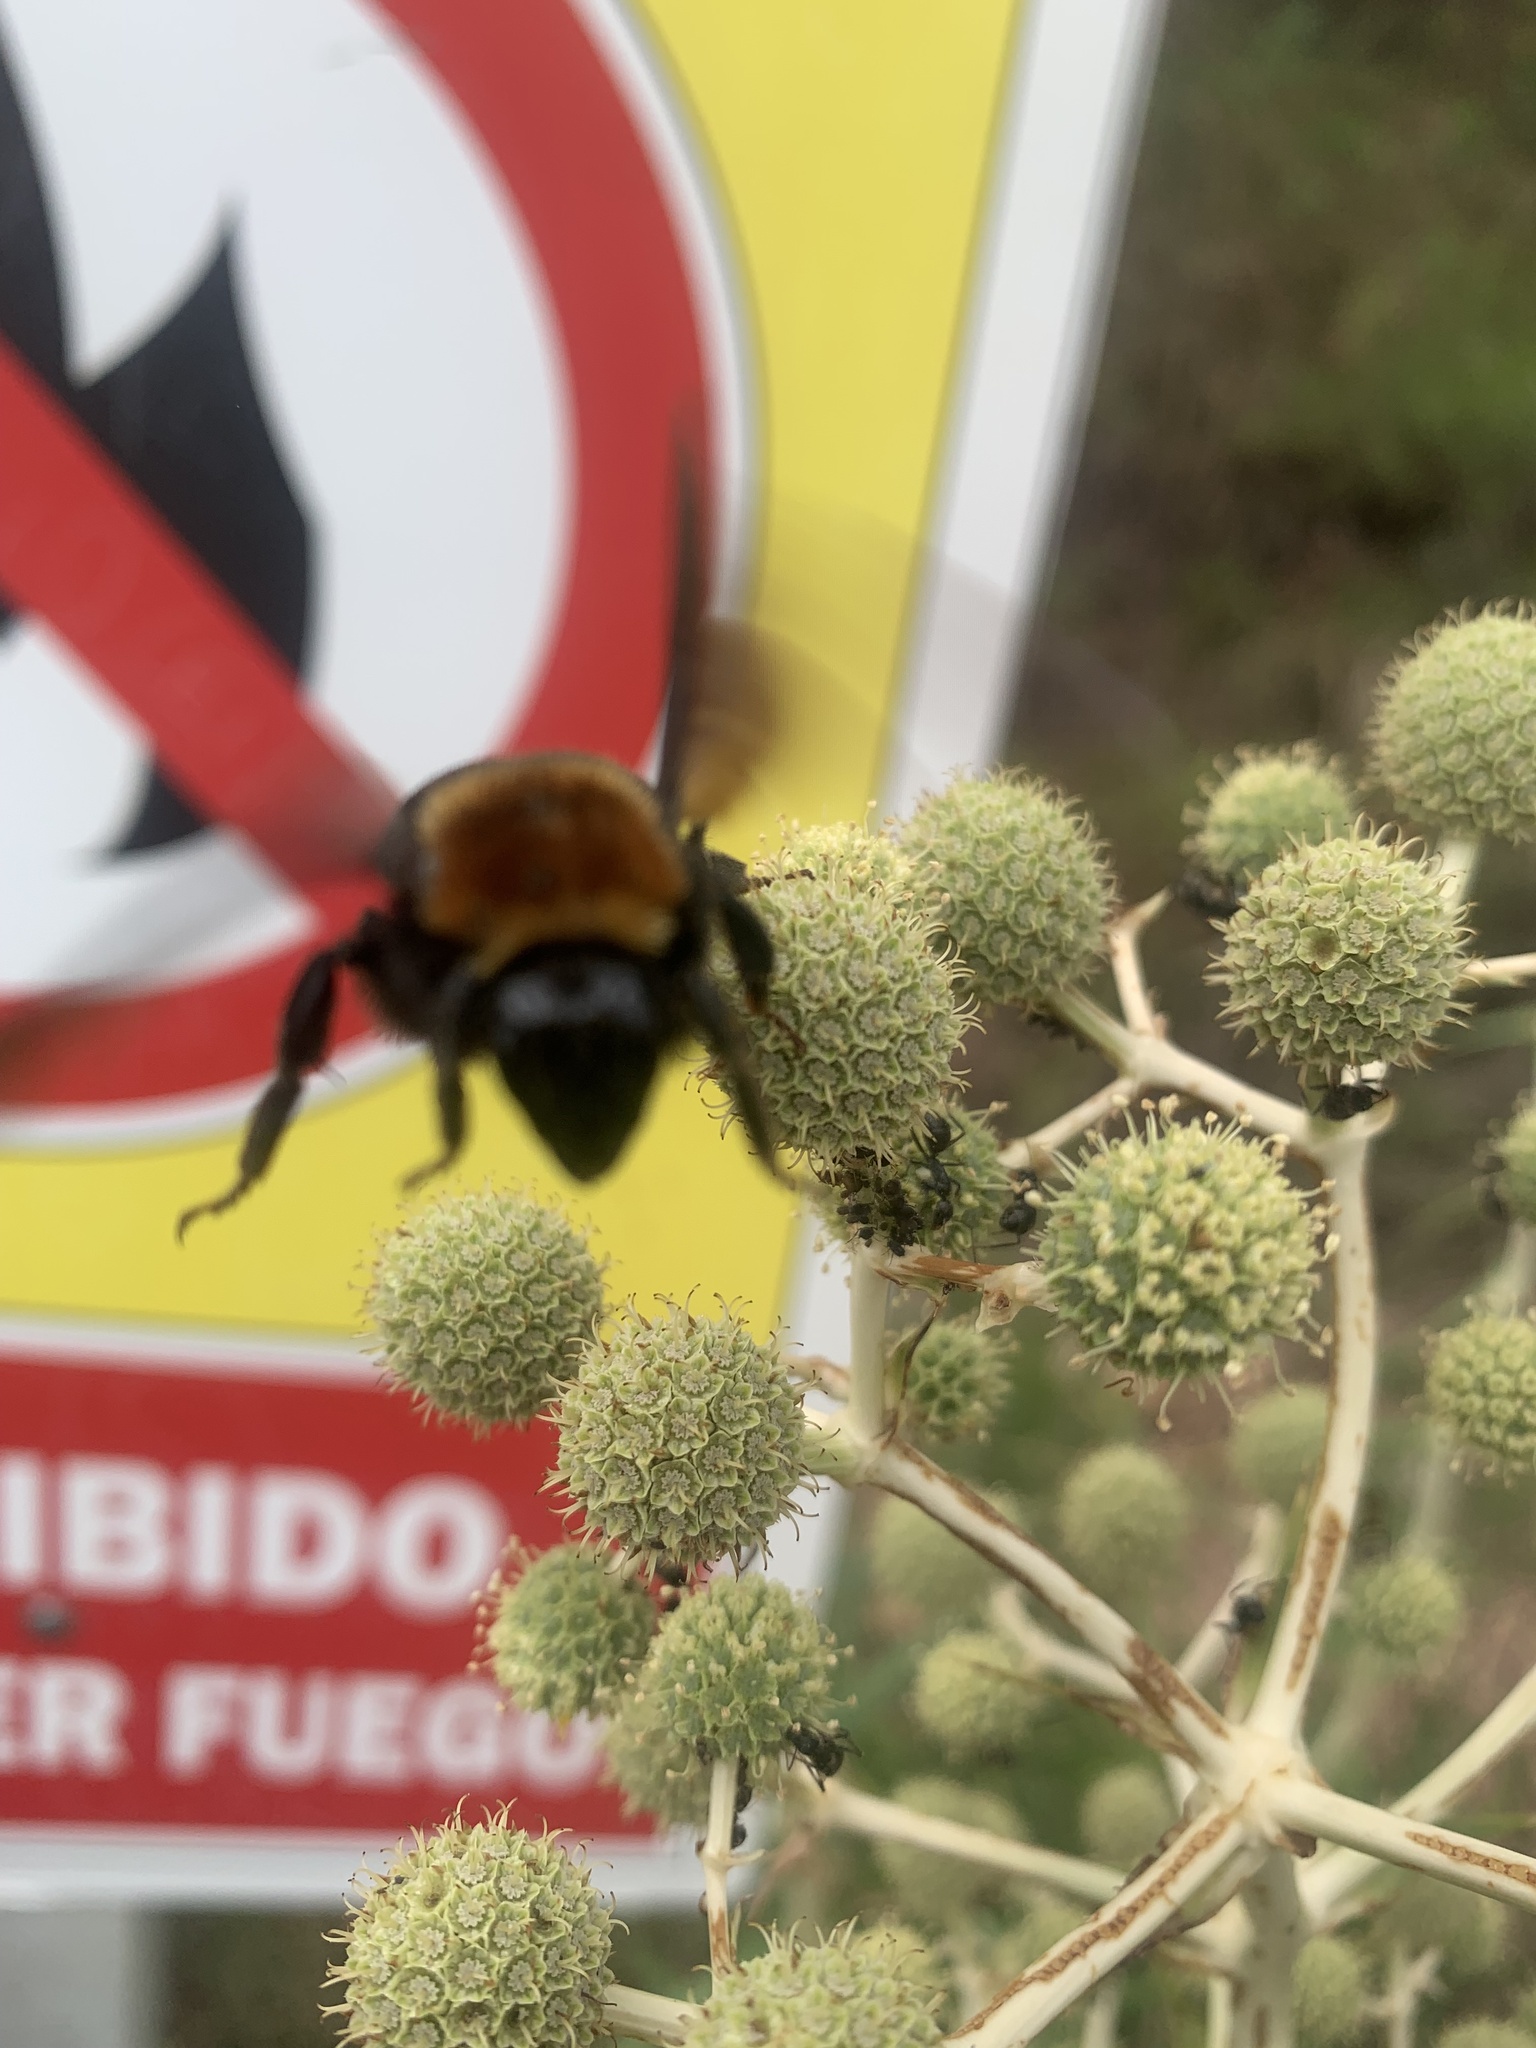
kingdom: Animalia
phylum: Arthropoda
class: Insecta
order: Hymenoptera
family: Apidae
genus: Bombus
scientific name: Bombus bellicosus
